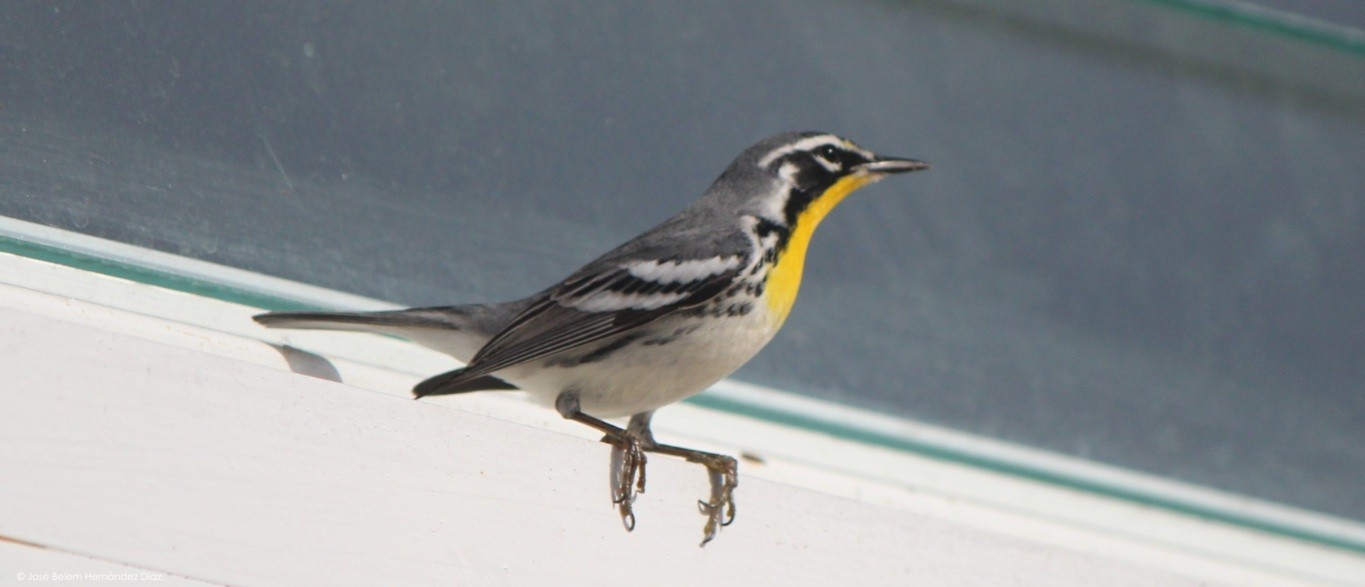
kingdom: Animalia
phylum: Chordata
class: Aves
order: Passeriformes
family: Parulidae
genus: Setophaga
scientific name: Setophaga dominica
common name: Yellow-throated warbler
